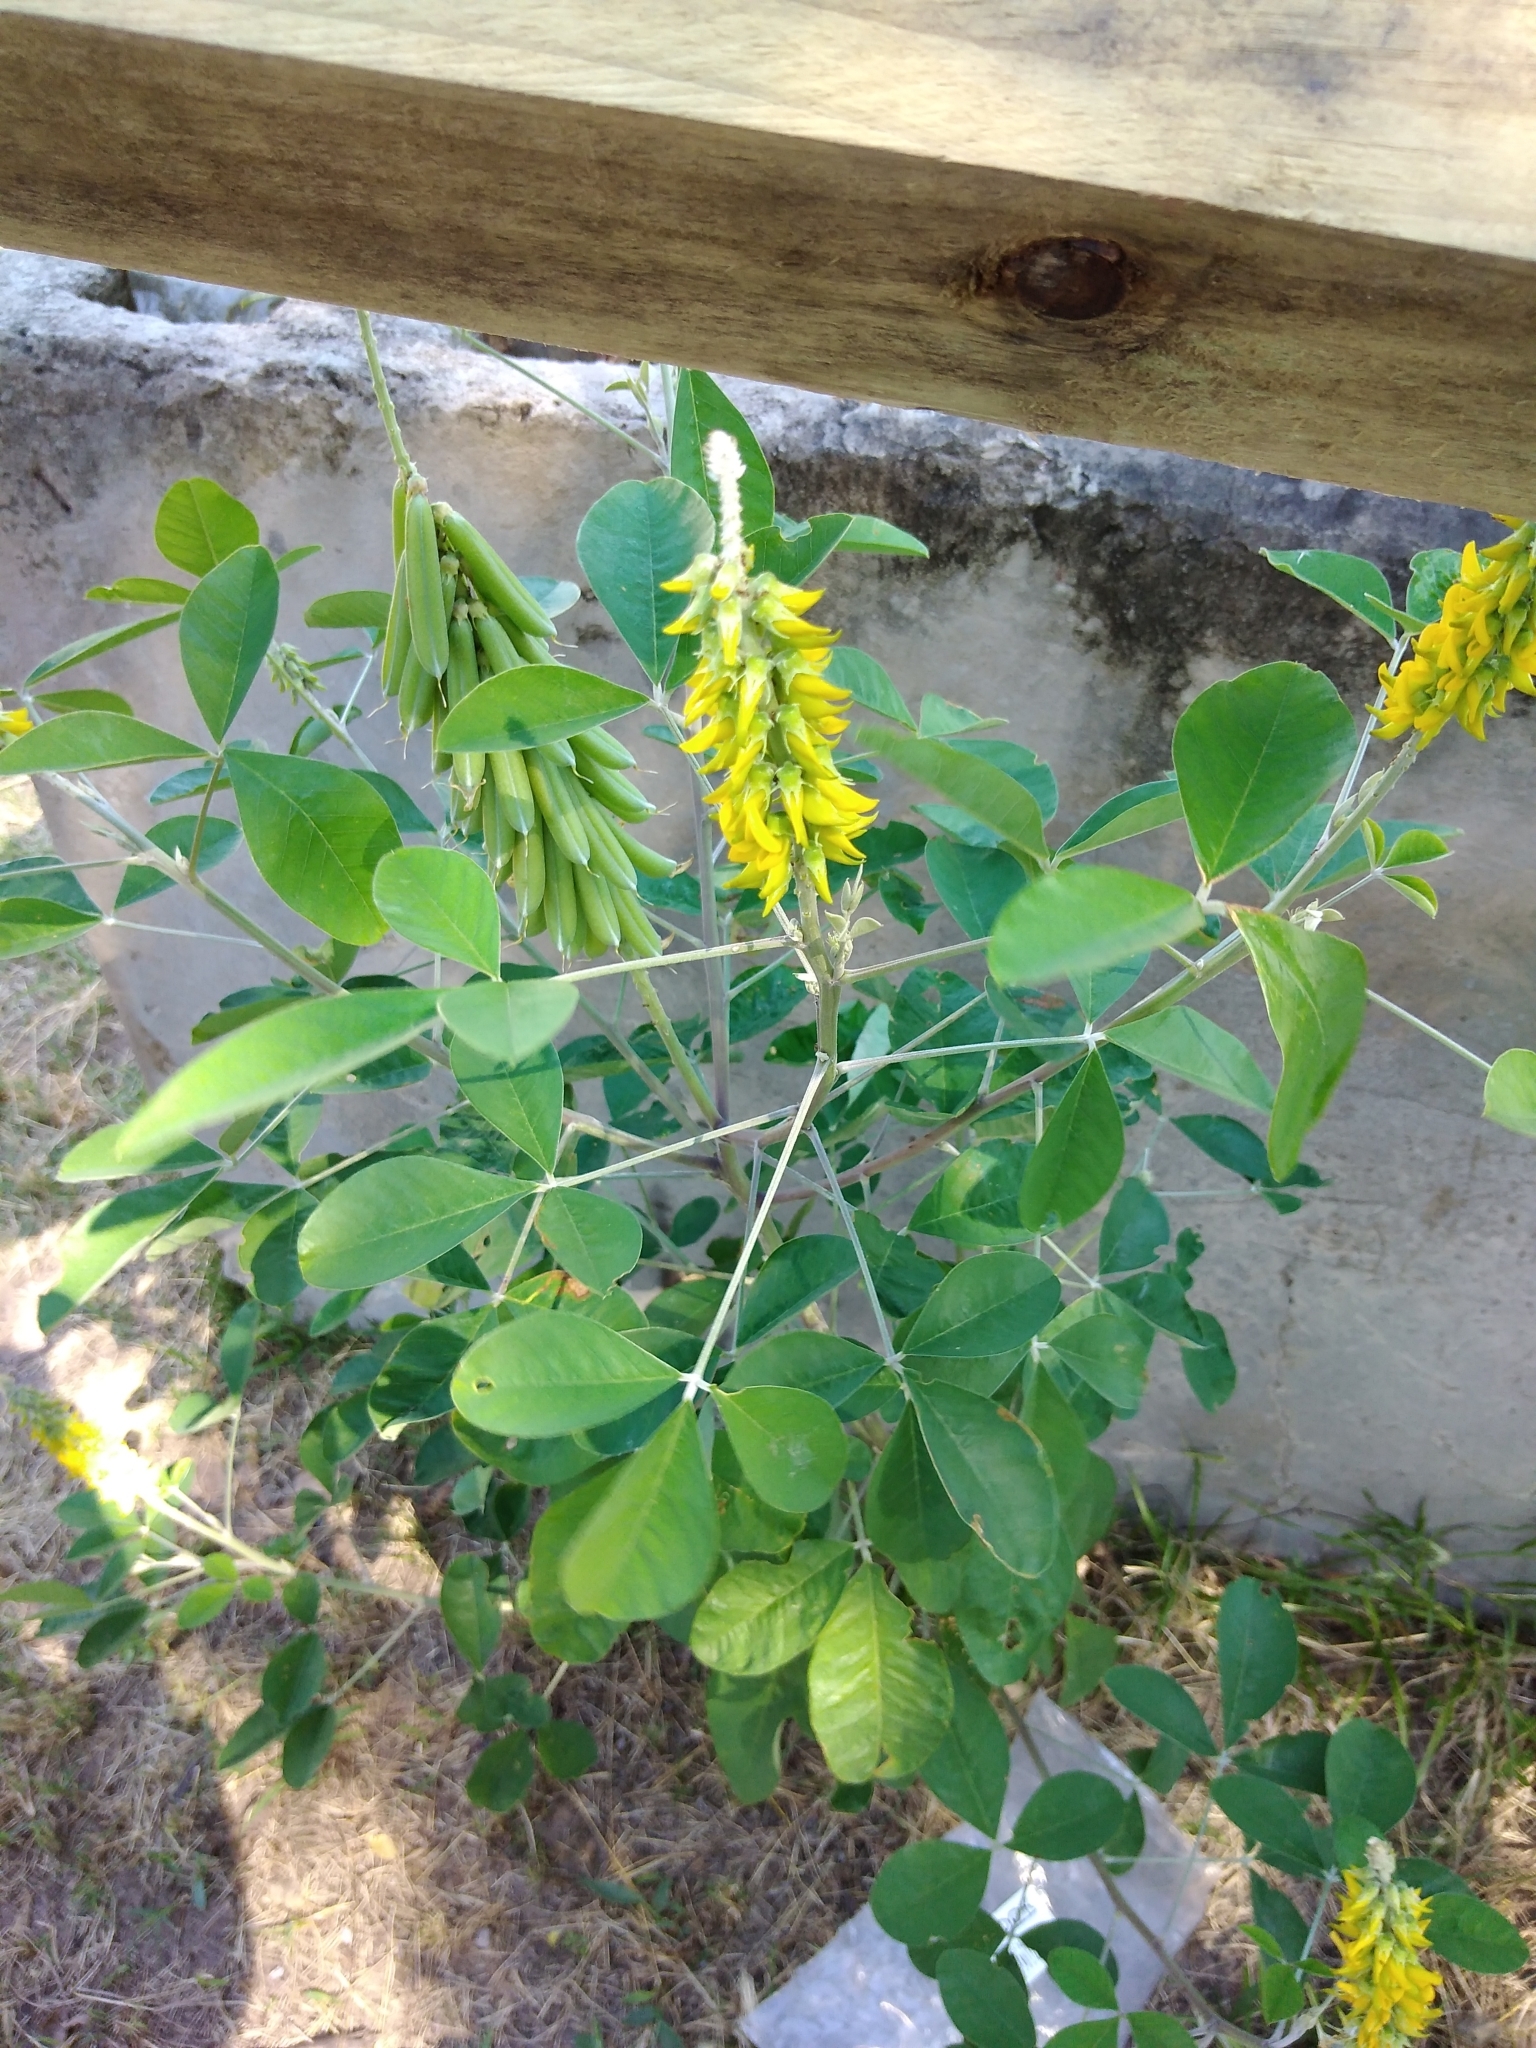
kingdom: Plantae
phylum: Tracheophyta
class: Magnoliopsida
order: Fabales
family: Fabaceae
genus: Crotalaria
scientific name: Crotalaria pallida
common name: Smooth rattlebox
